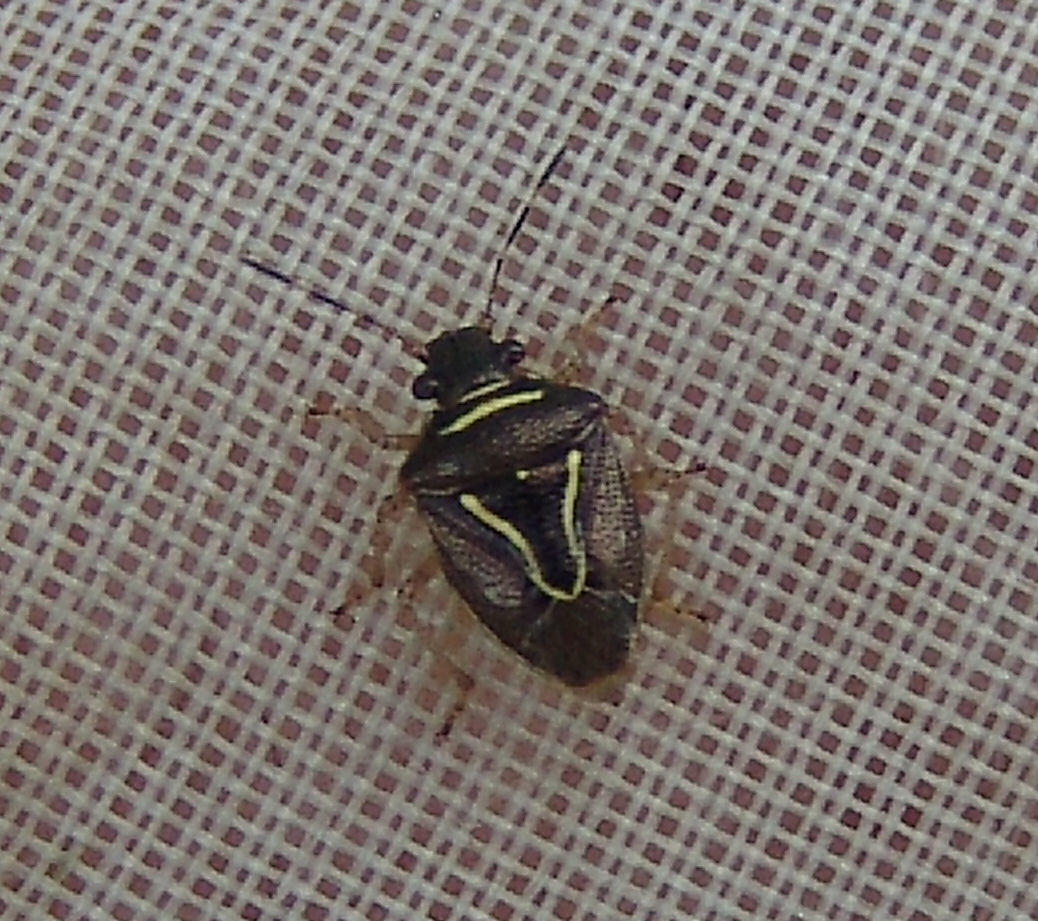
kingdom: Animalia
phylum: Arthropoda
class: Insecta
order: Hemiptera
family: Pentatomidae
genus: Mormidea
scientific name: Mormidea lugens
